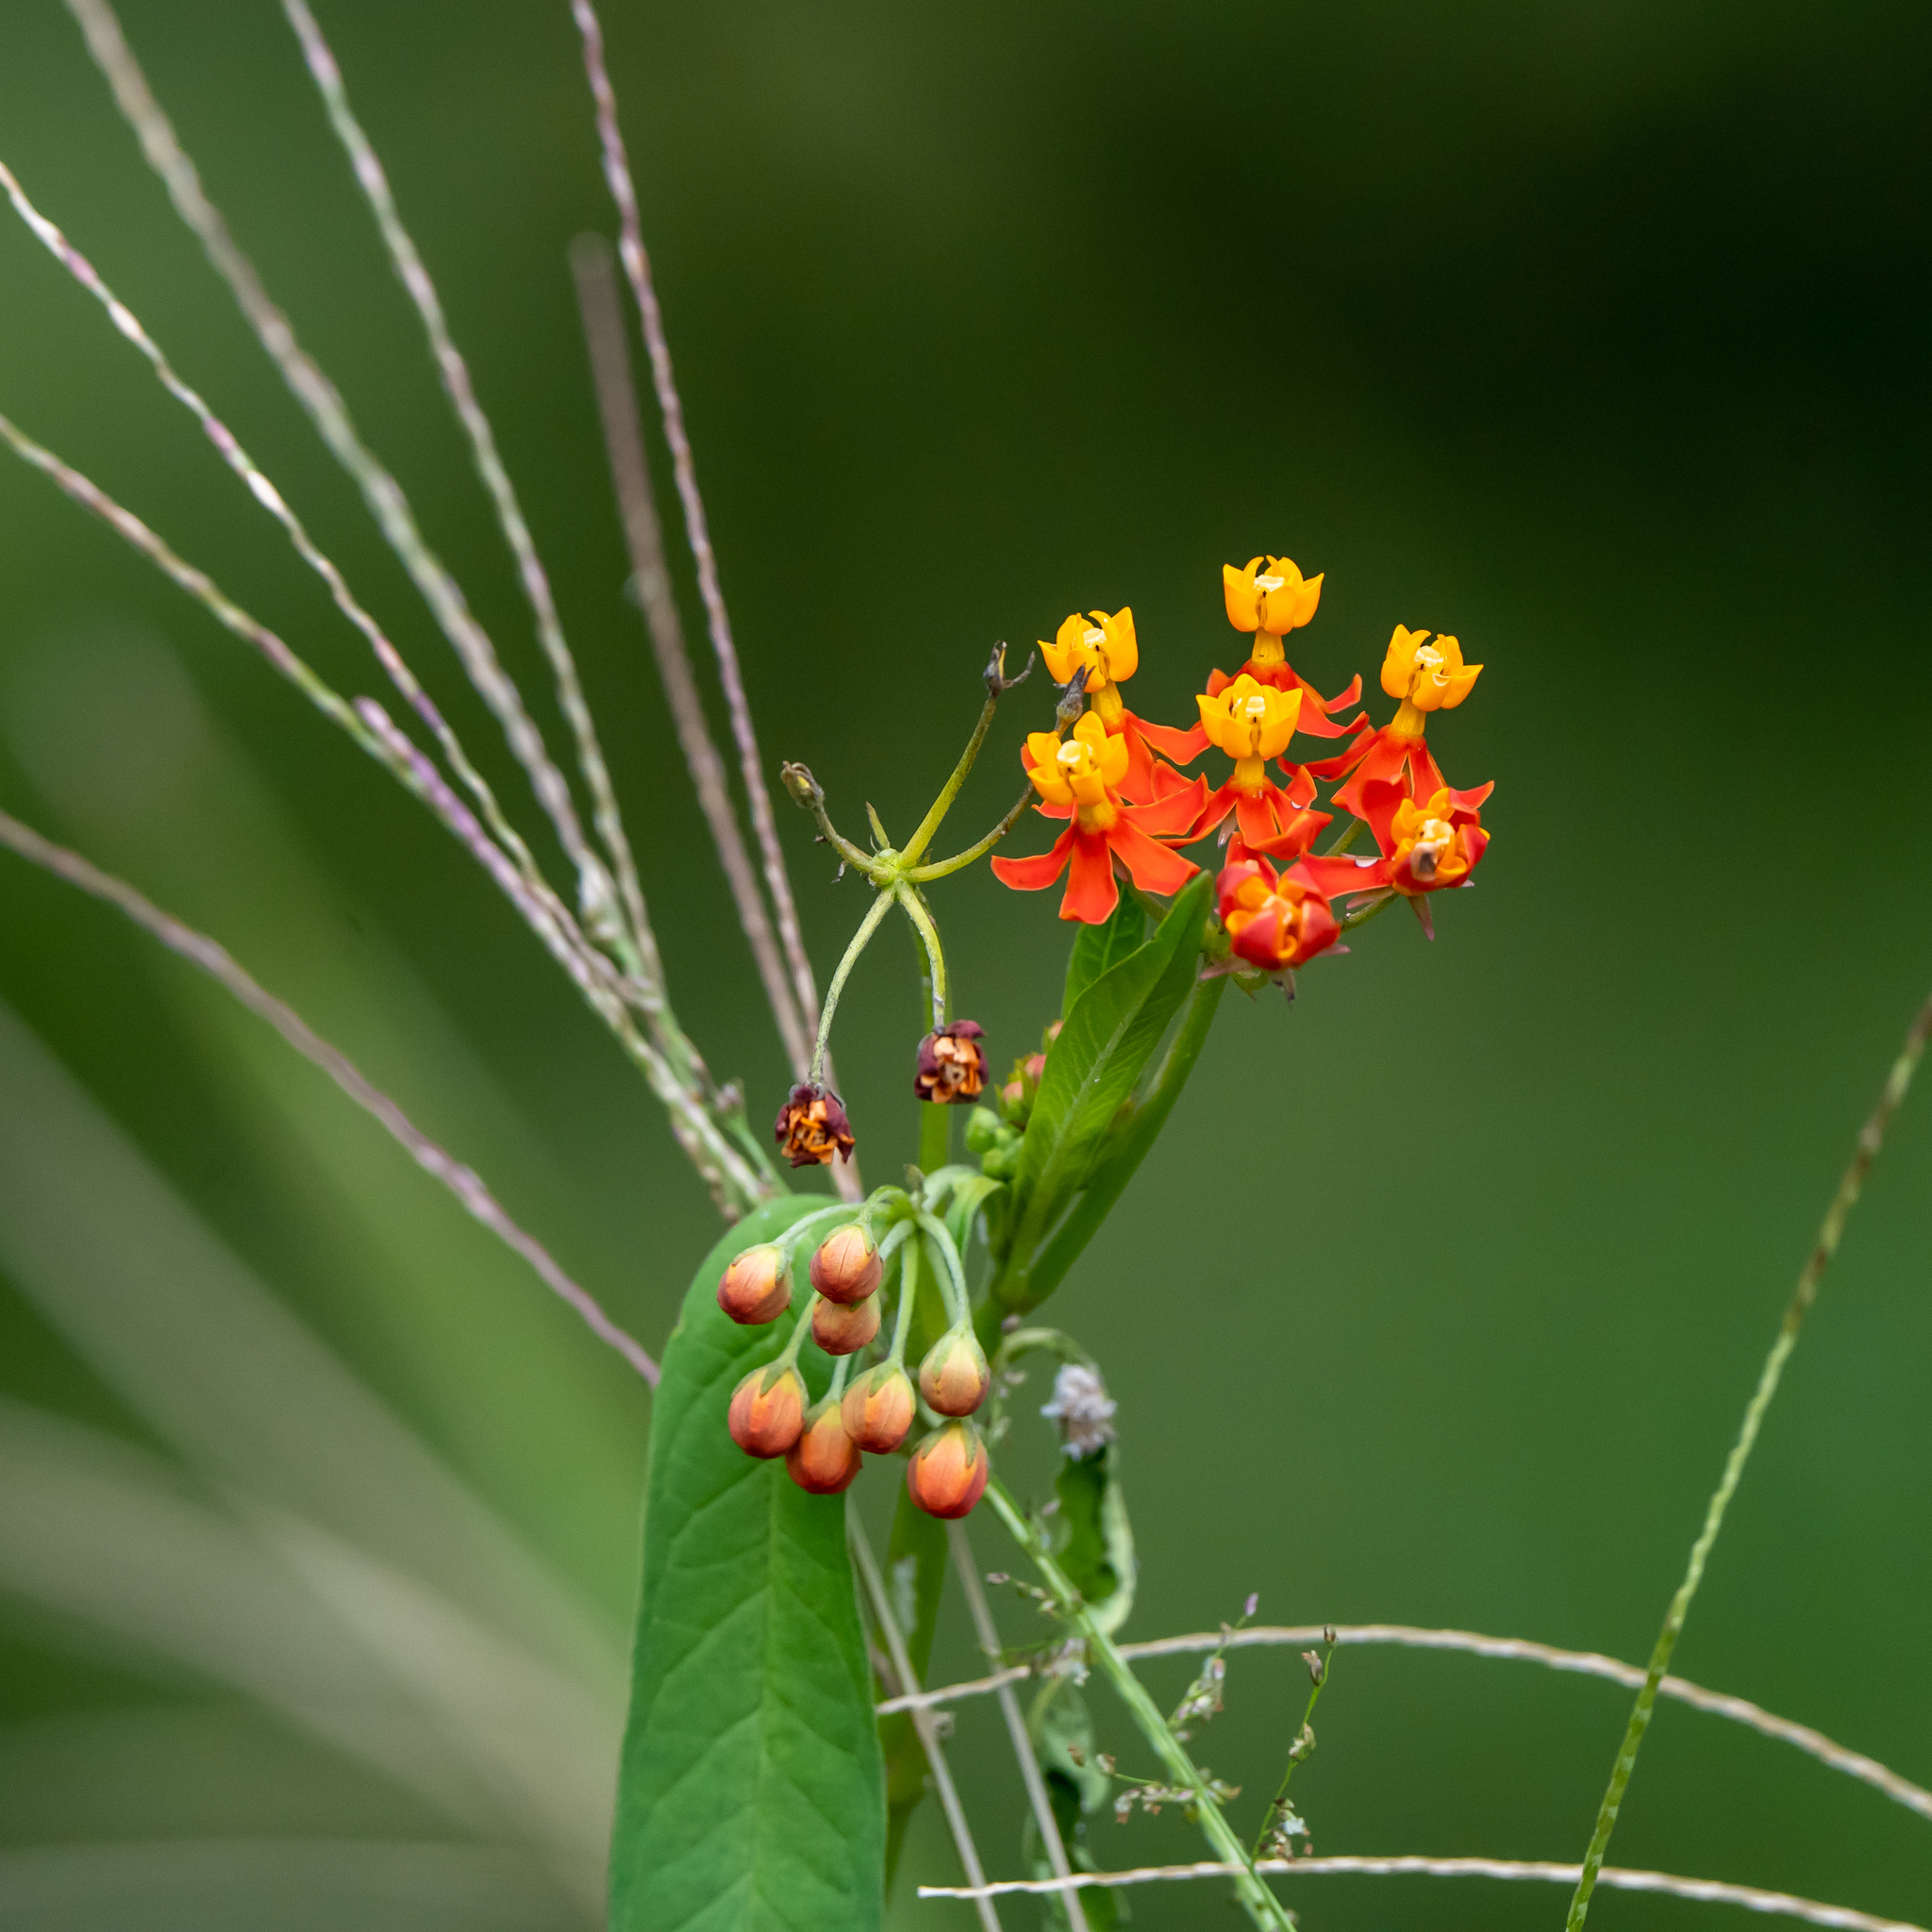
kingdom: Plantae
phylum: Tracheophyta
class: Magnoliopsida
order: Gentianales
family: Apocynaceae
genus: Asclepias
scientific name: Asclepias curassavica
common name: Bloodflower
